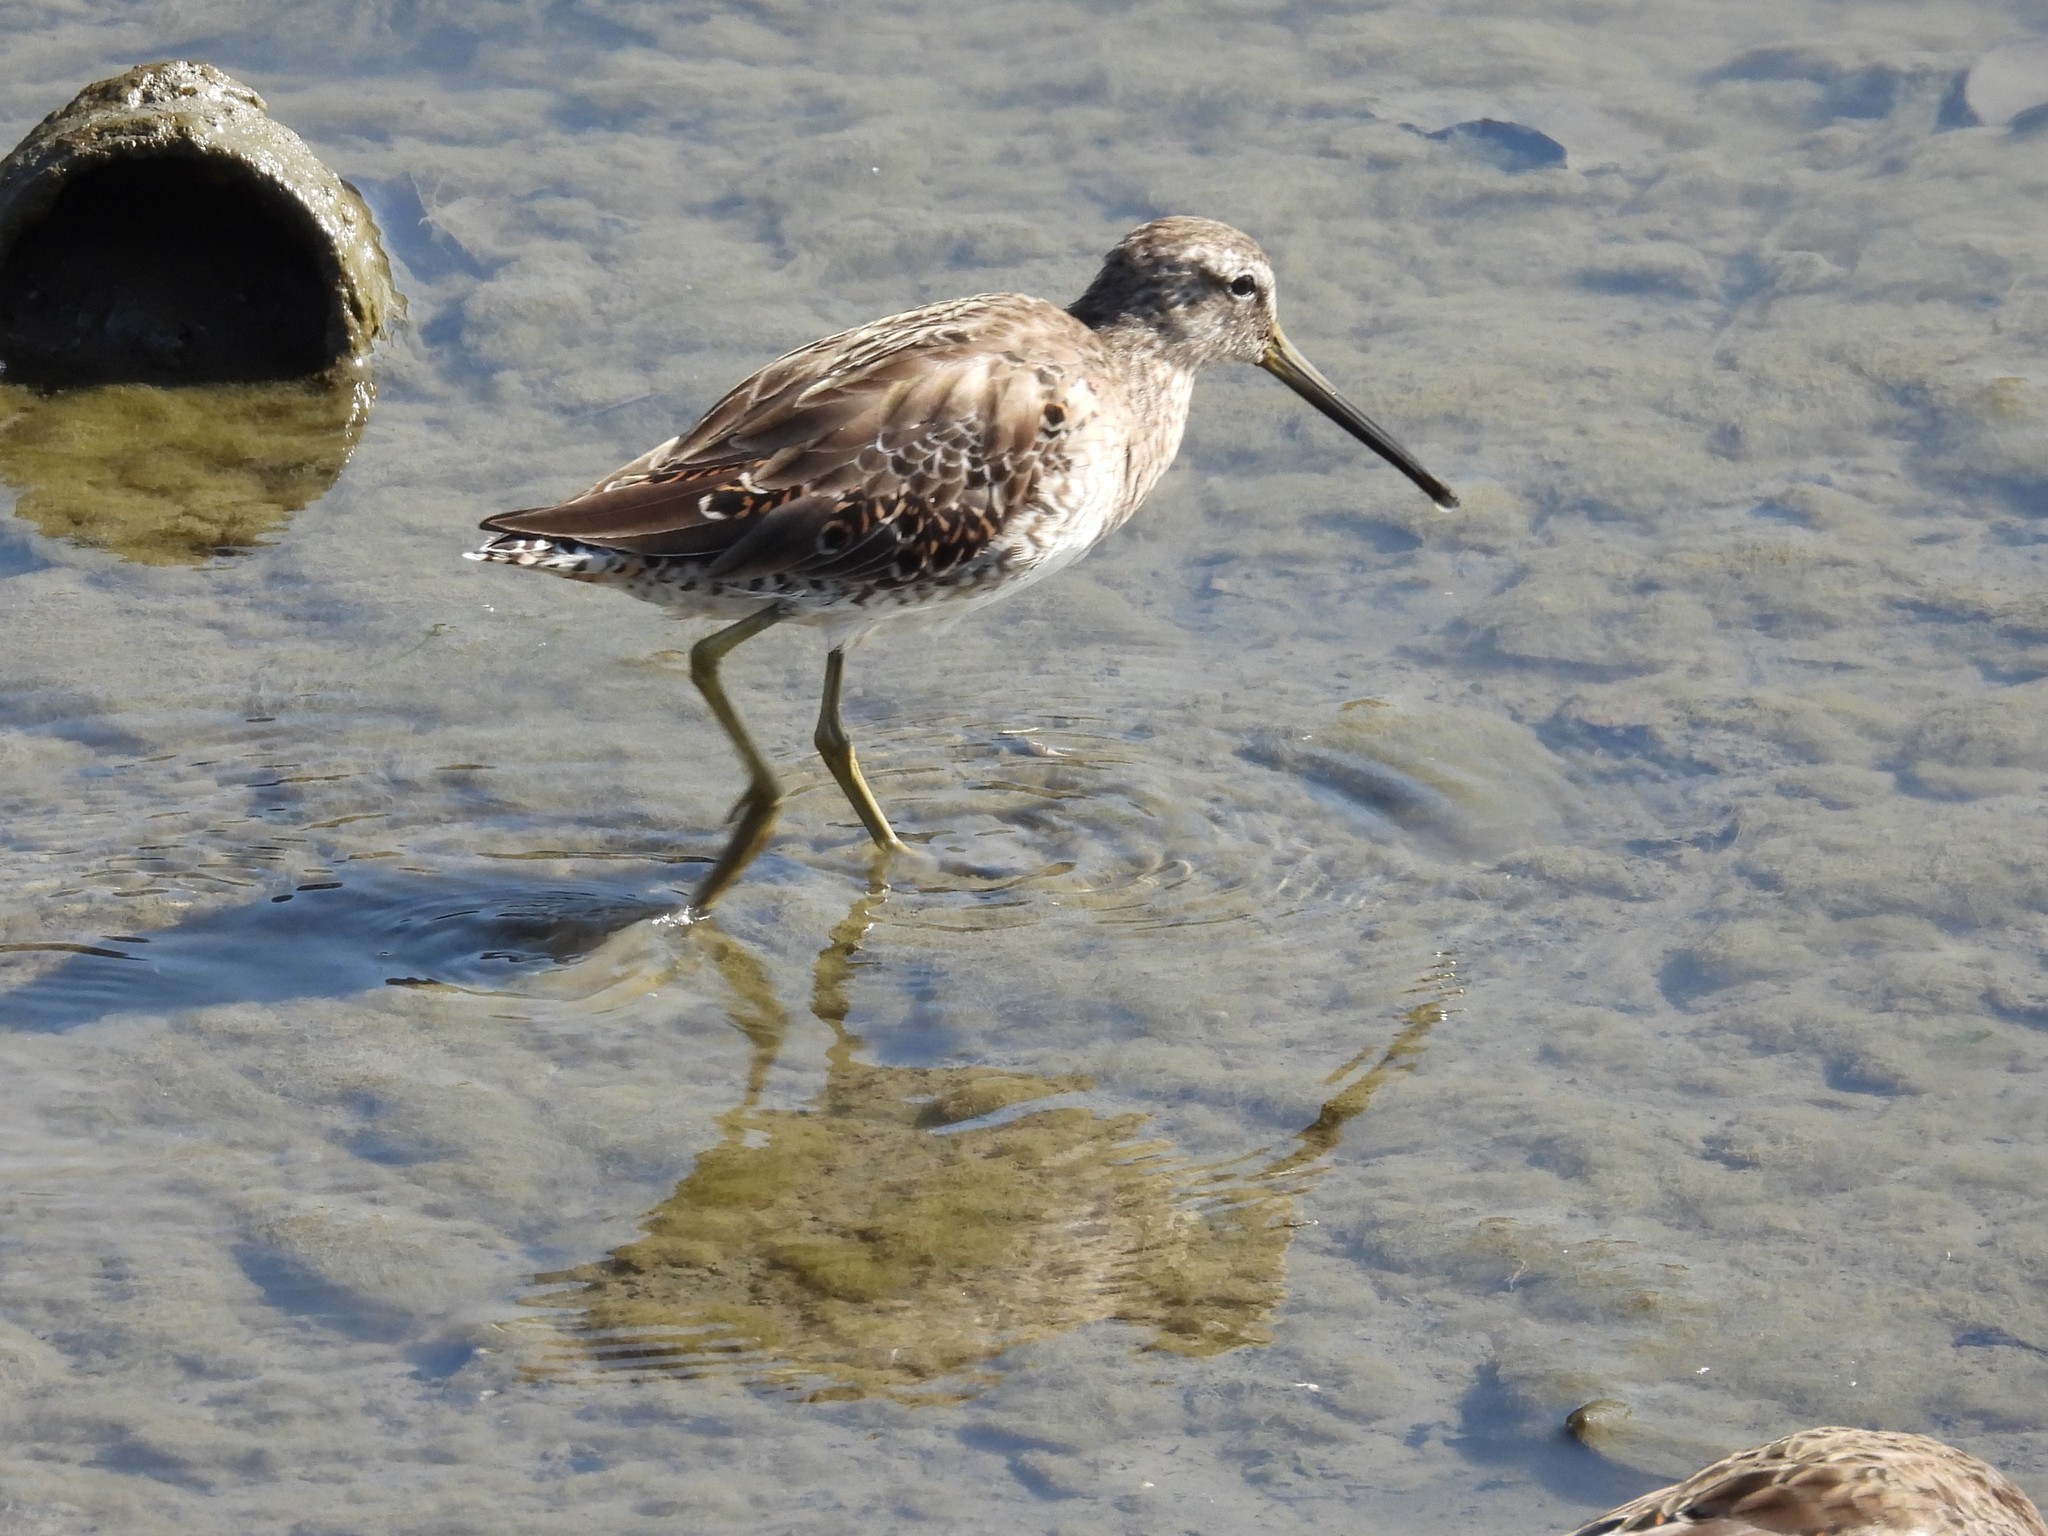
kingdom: Animalia
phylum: Chordata
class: Aves
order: Charadriiformes
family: Scolopacidae
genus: Limnodromus
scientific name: Limnodromus scolopaceus
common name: Long-billed dowitcher
